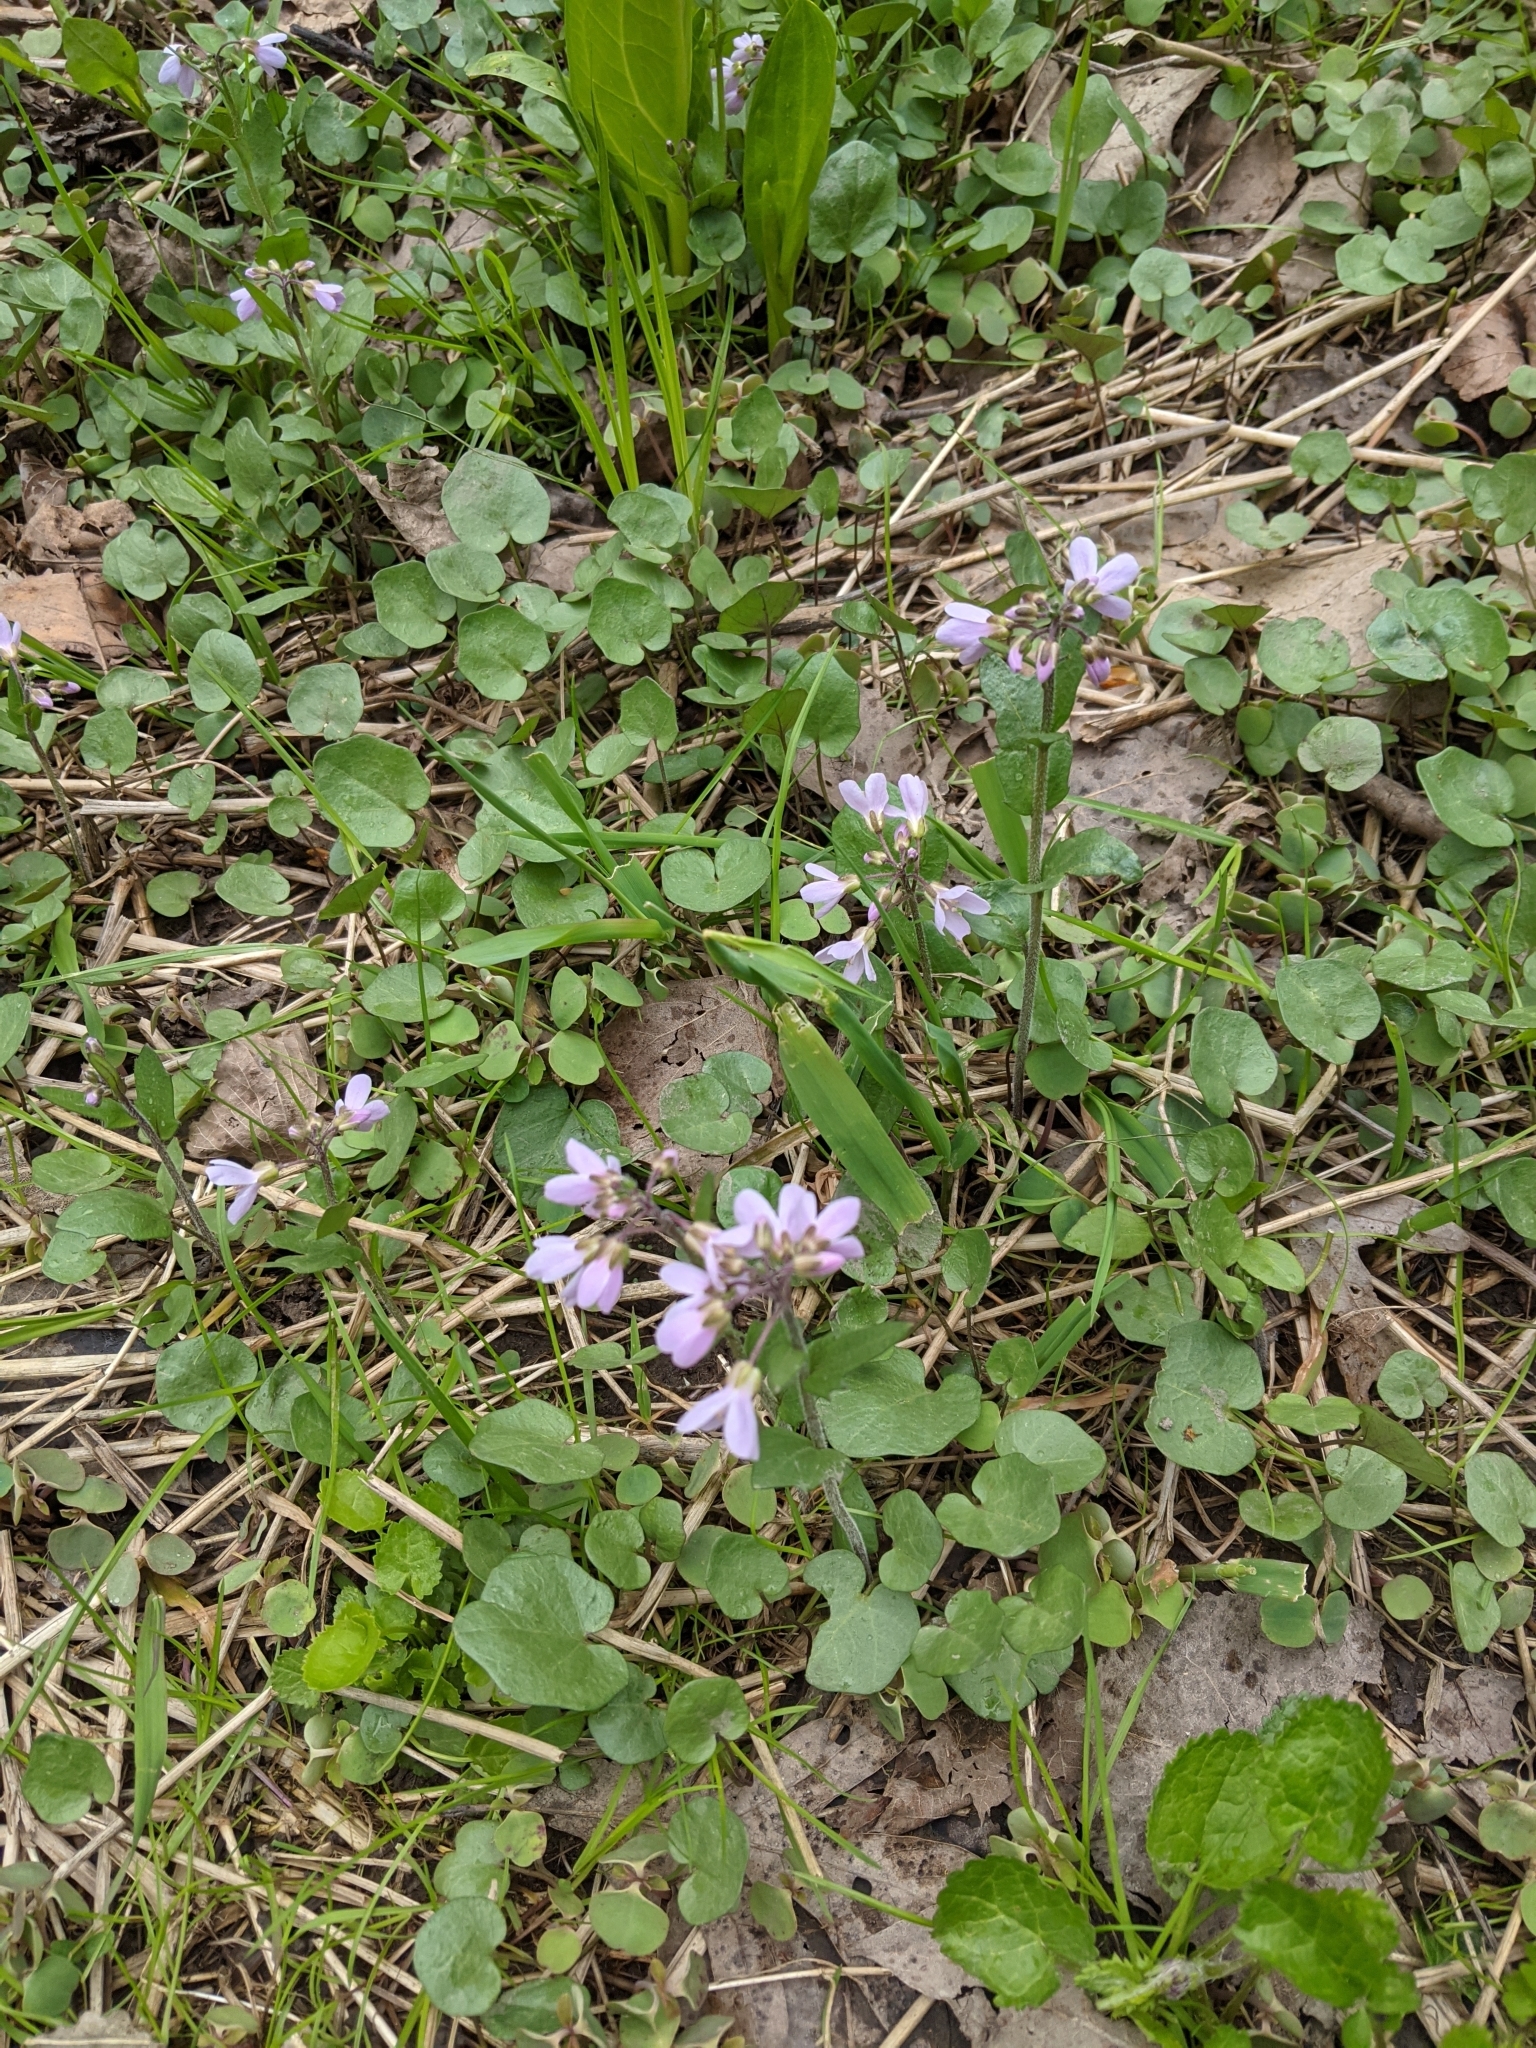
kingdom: Plantae
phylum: Tracheophyta
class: Magnoliopsida
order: Brassicales
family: Brassicaceae
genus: Cardamine
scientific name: Cardamine douglassii
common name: Purple cress
